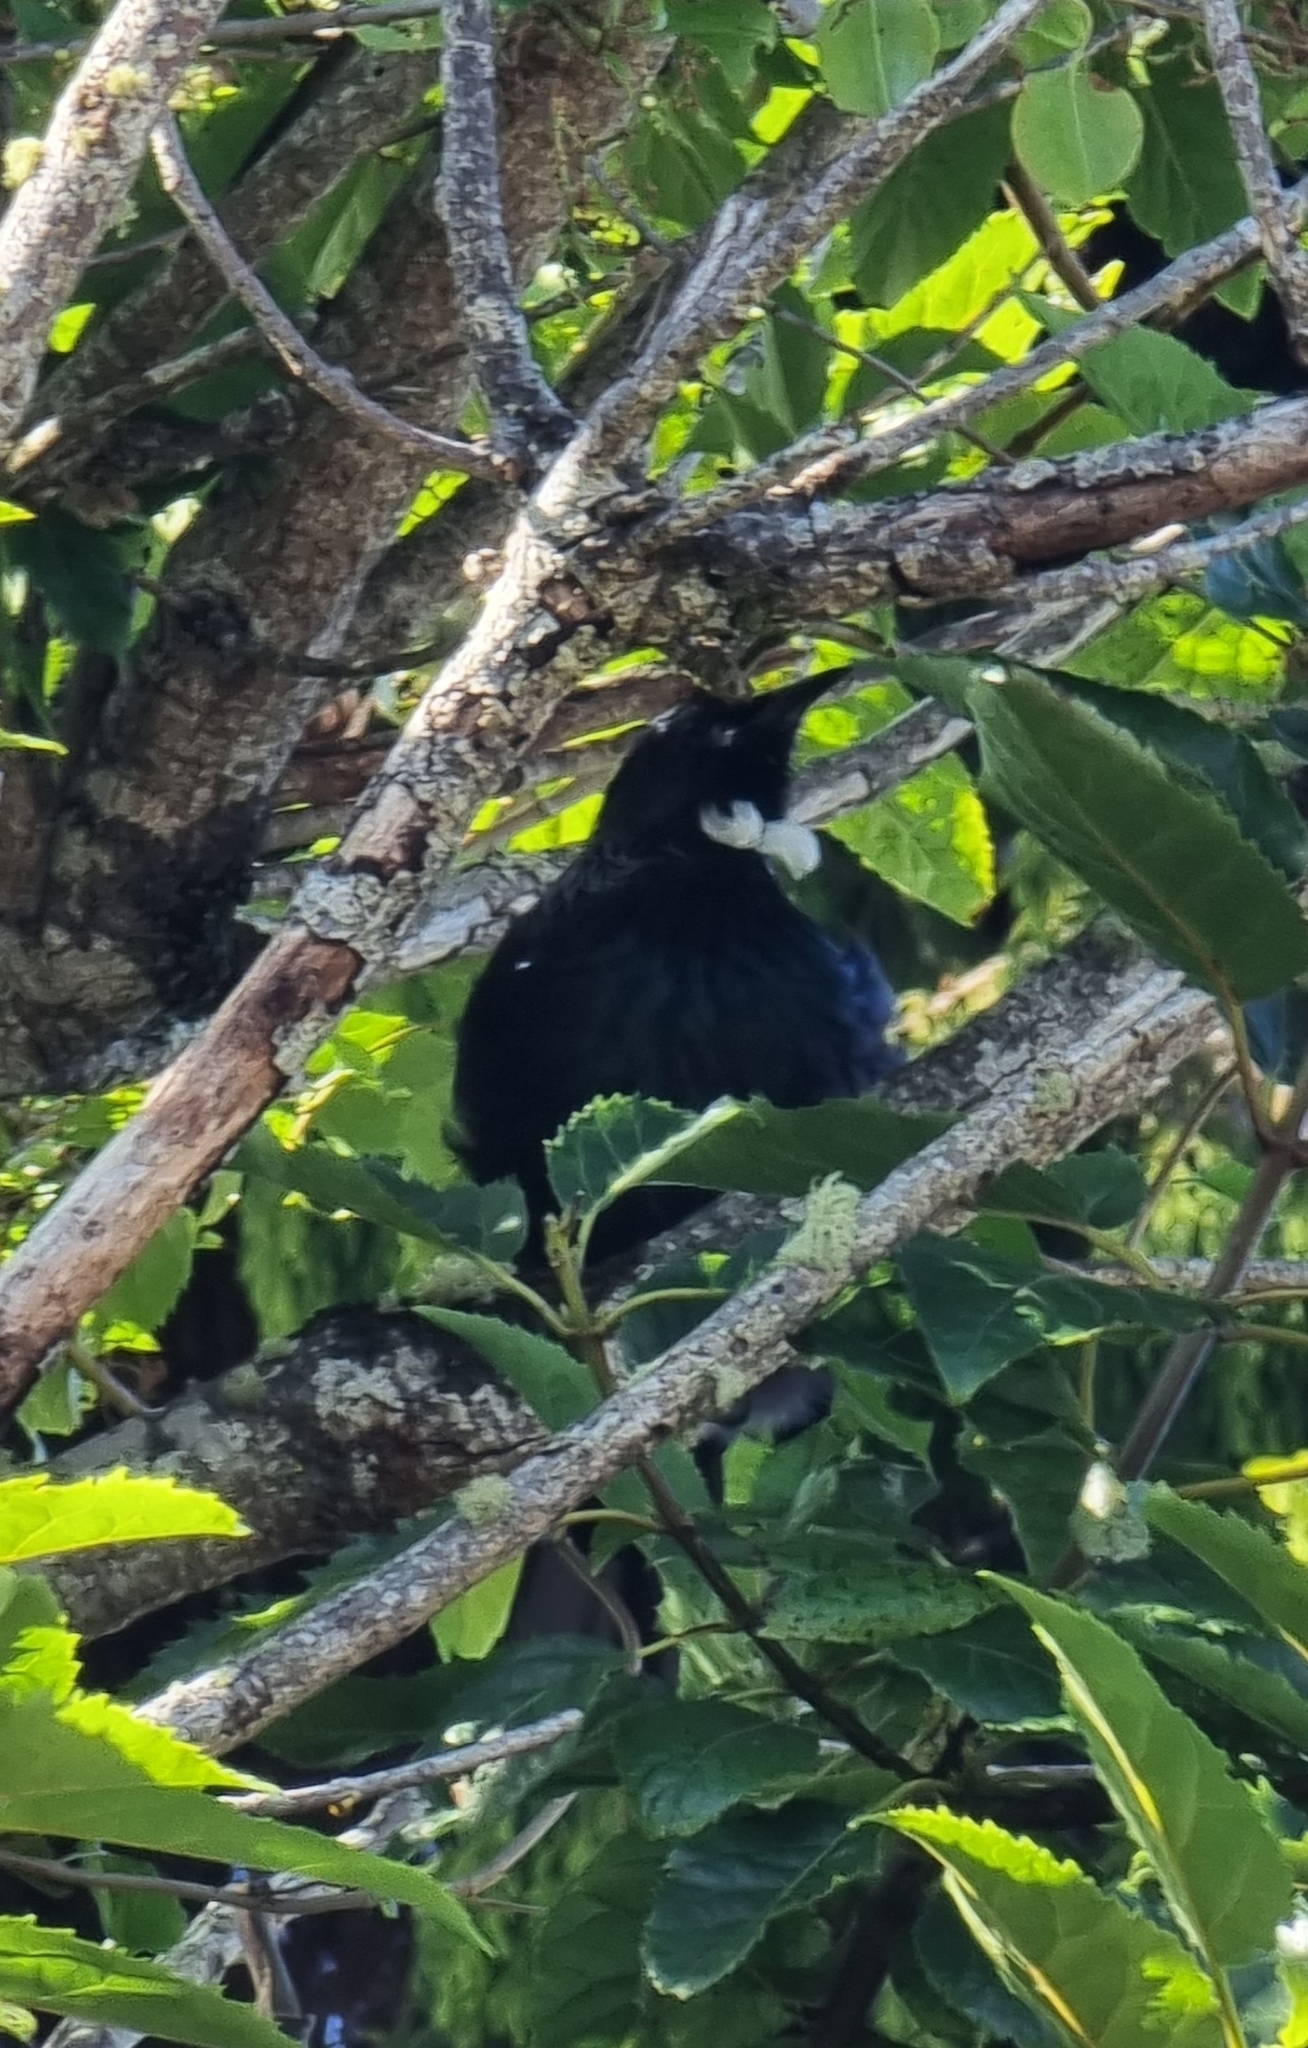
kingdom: Animalia
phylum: Chordata
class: Aves
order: Passeriformes
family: Meliphagidae
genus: Prosthemadera
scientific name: Prosthemadera novaeseelandiae
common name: Tui
